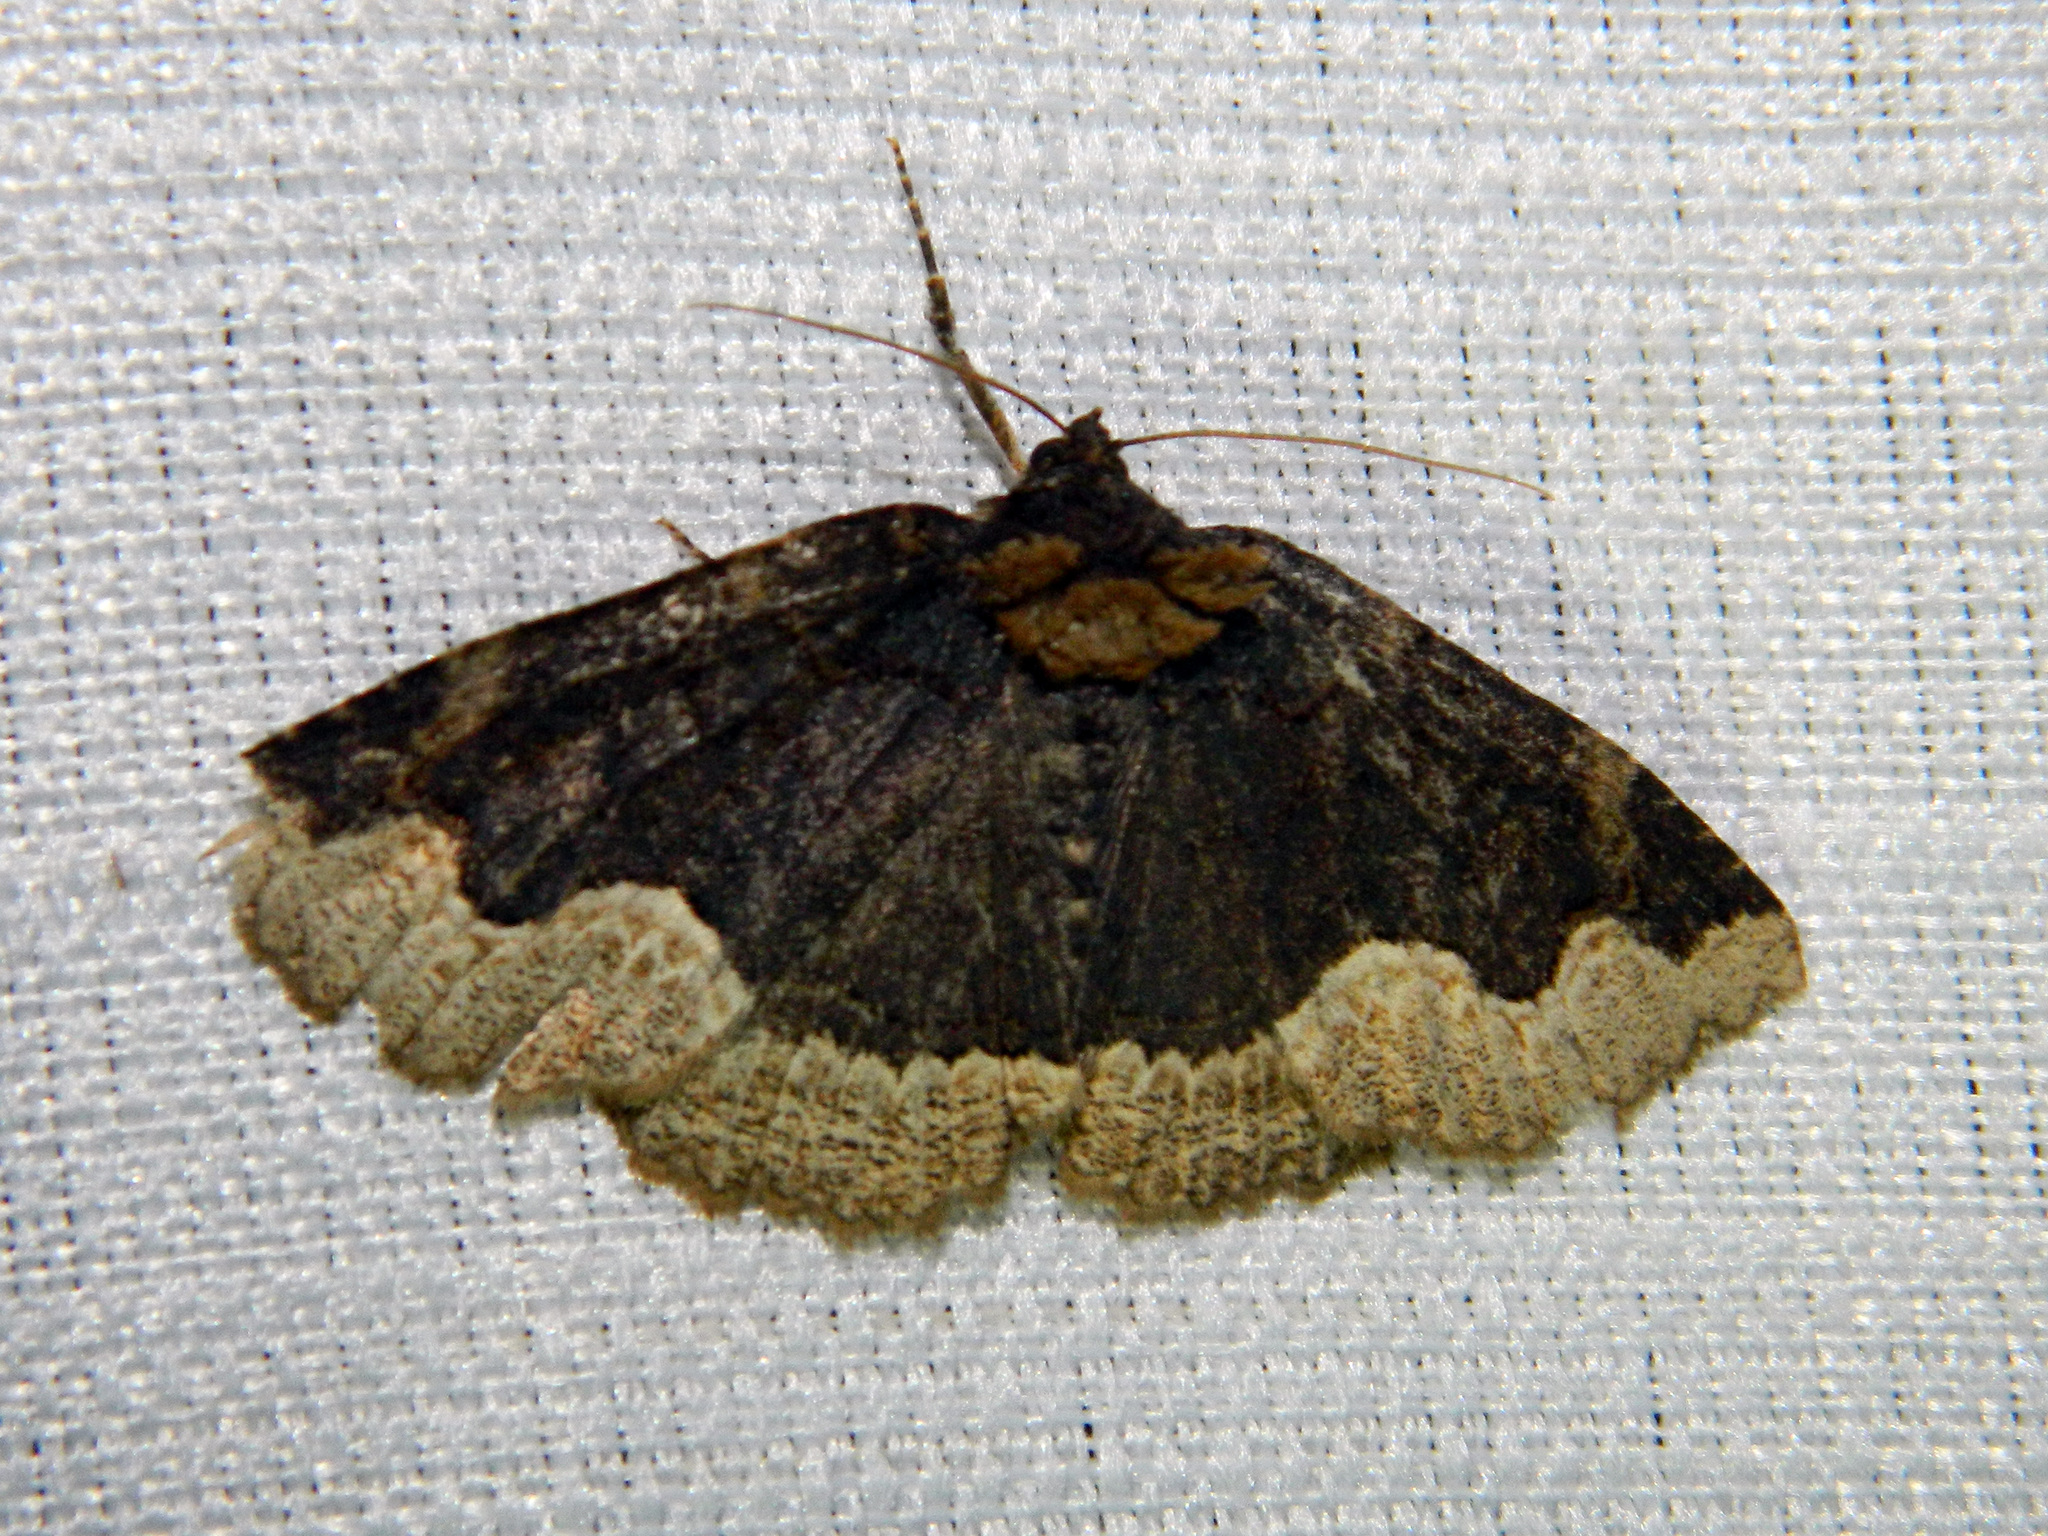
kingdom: Animalia
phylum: Arthropoda
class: Insecta
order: Lepidoptera
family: Erebidae
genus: Zale
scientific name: Zale horrida
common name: Horrid zale moth
